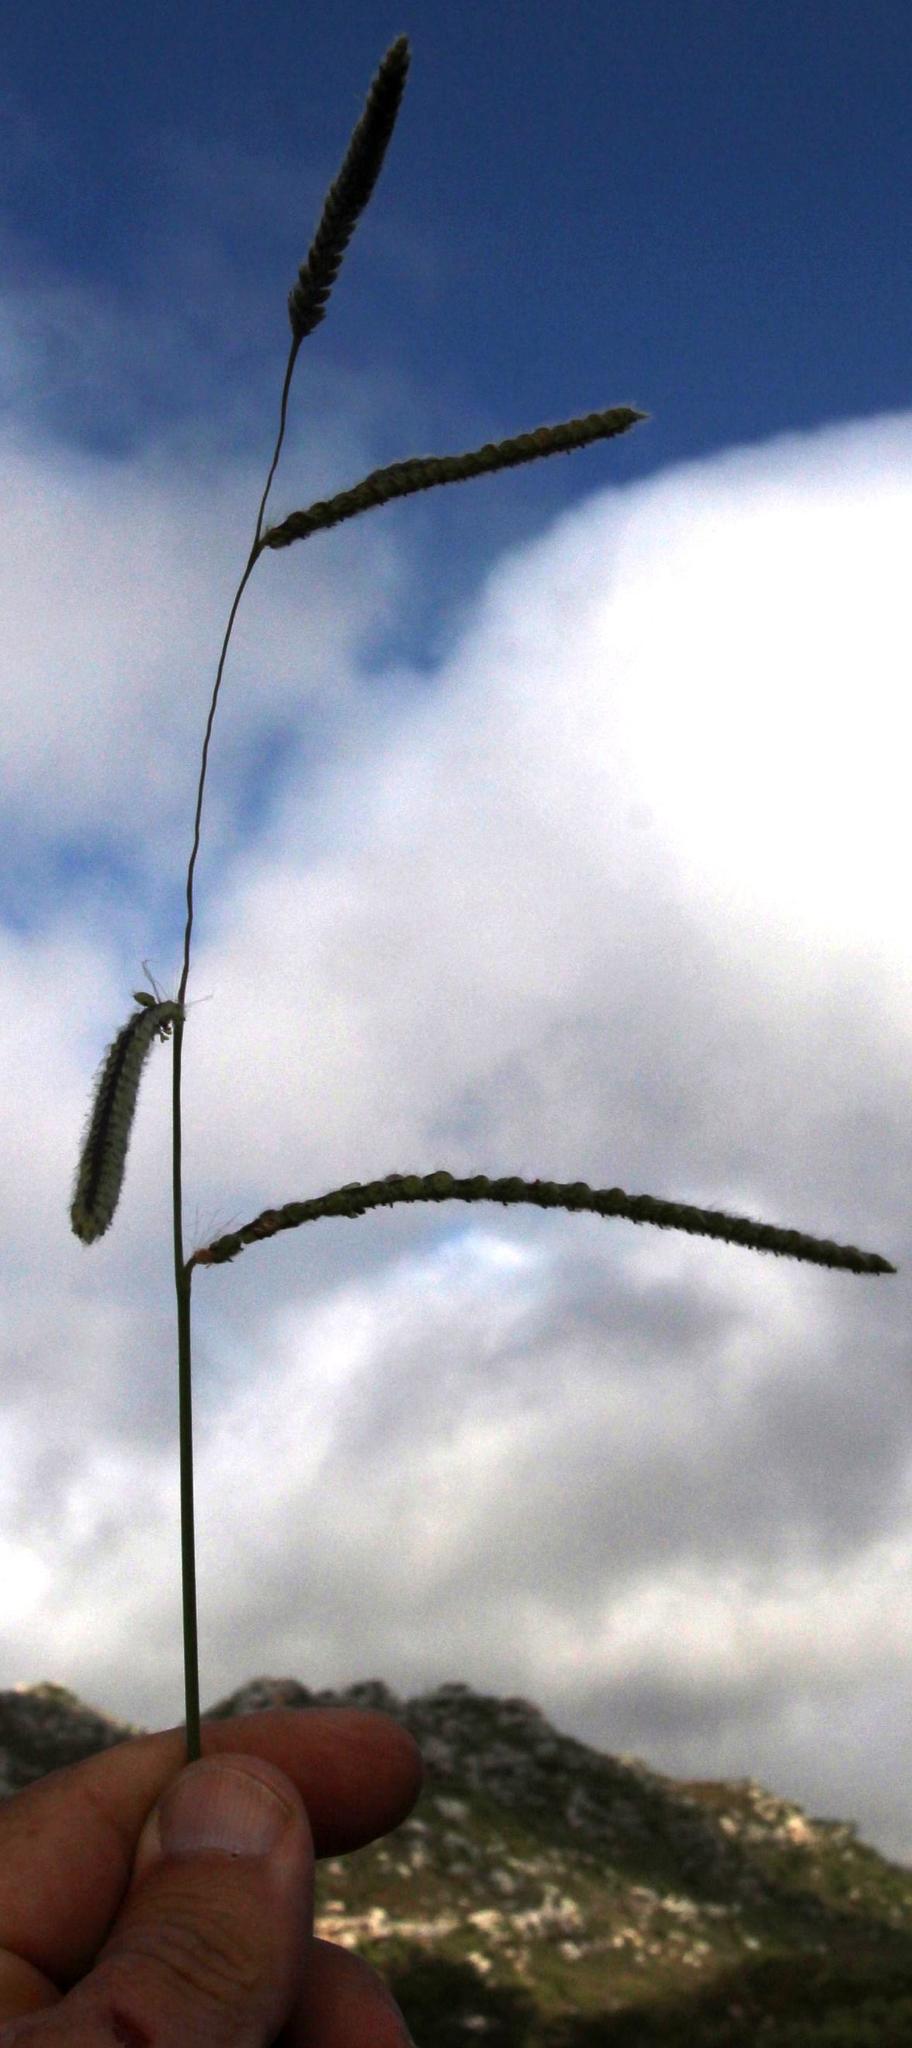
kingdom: Plantae
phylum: Tracheophyta
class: Liliopsida
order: Poales
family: Poaceae
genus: Paspalum
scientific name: Paspalum dilatatum
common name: Dallisgrass
